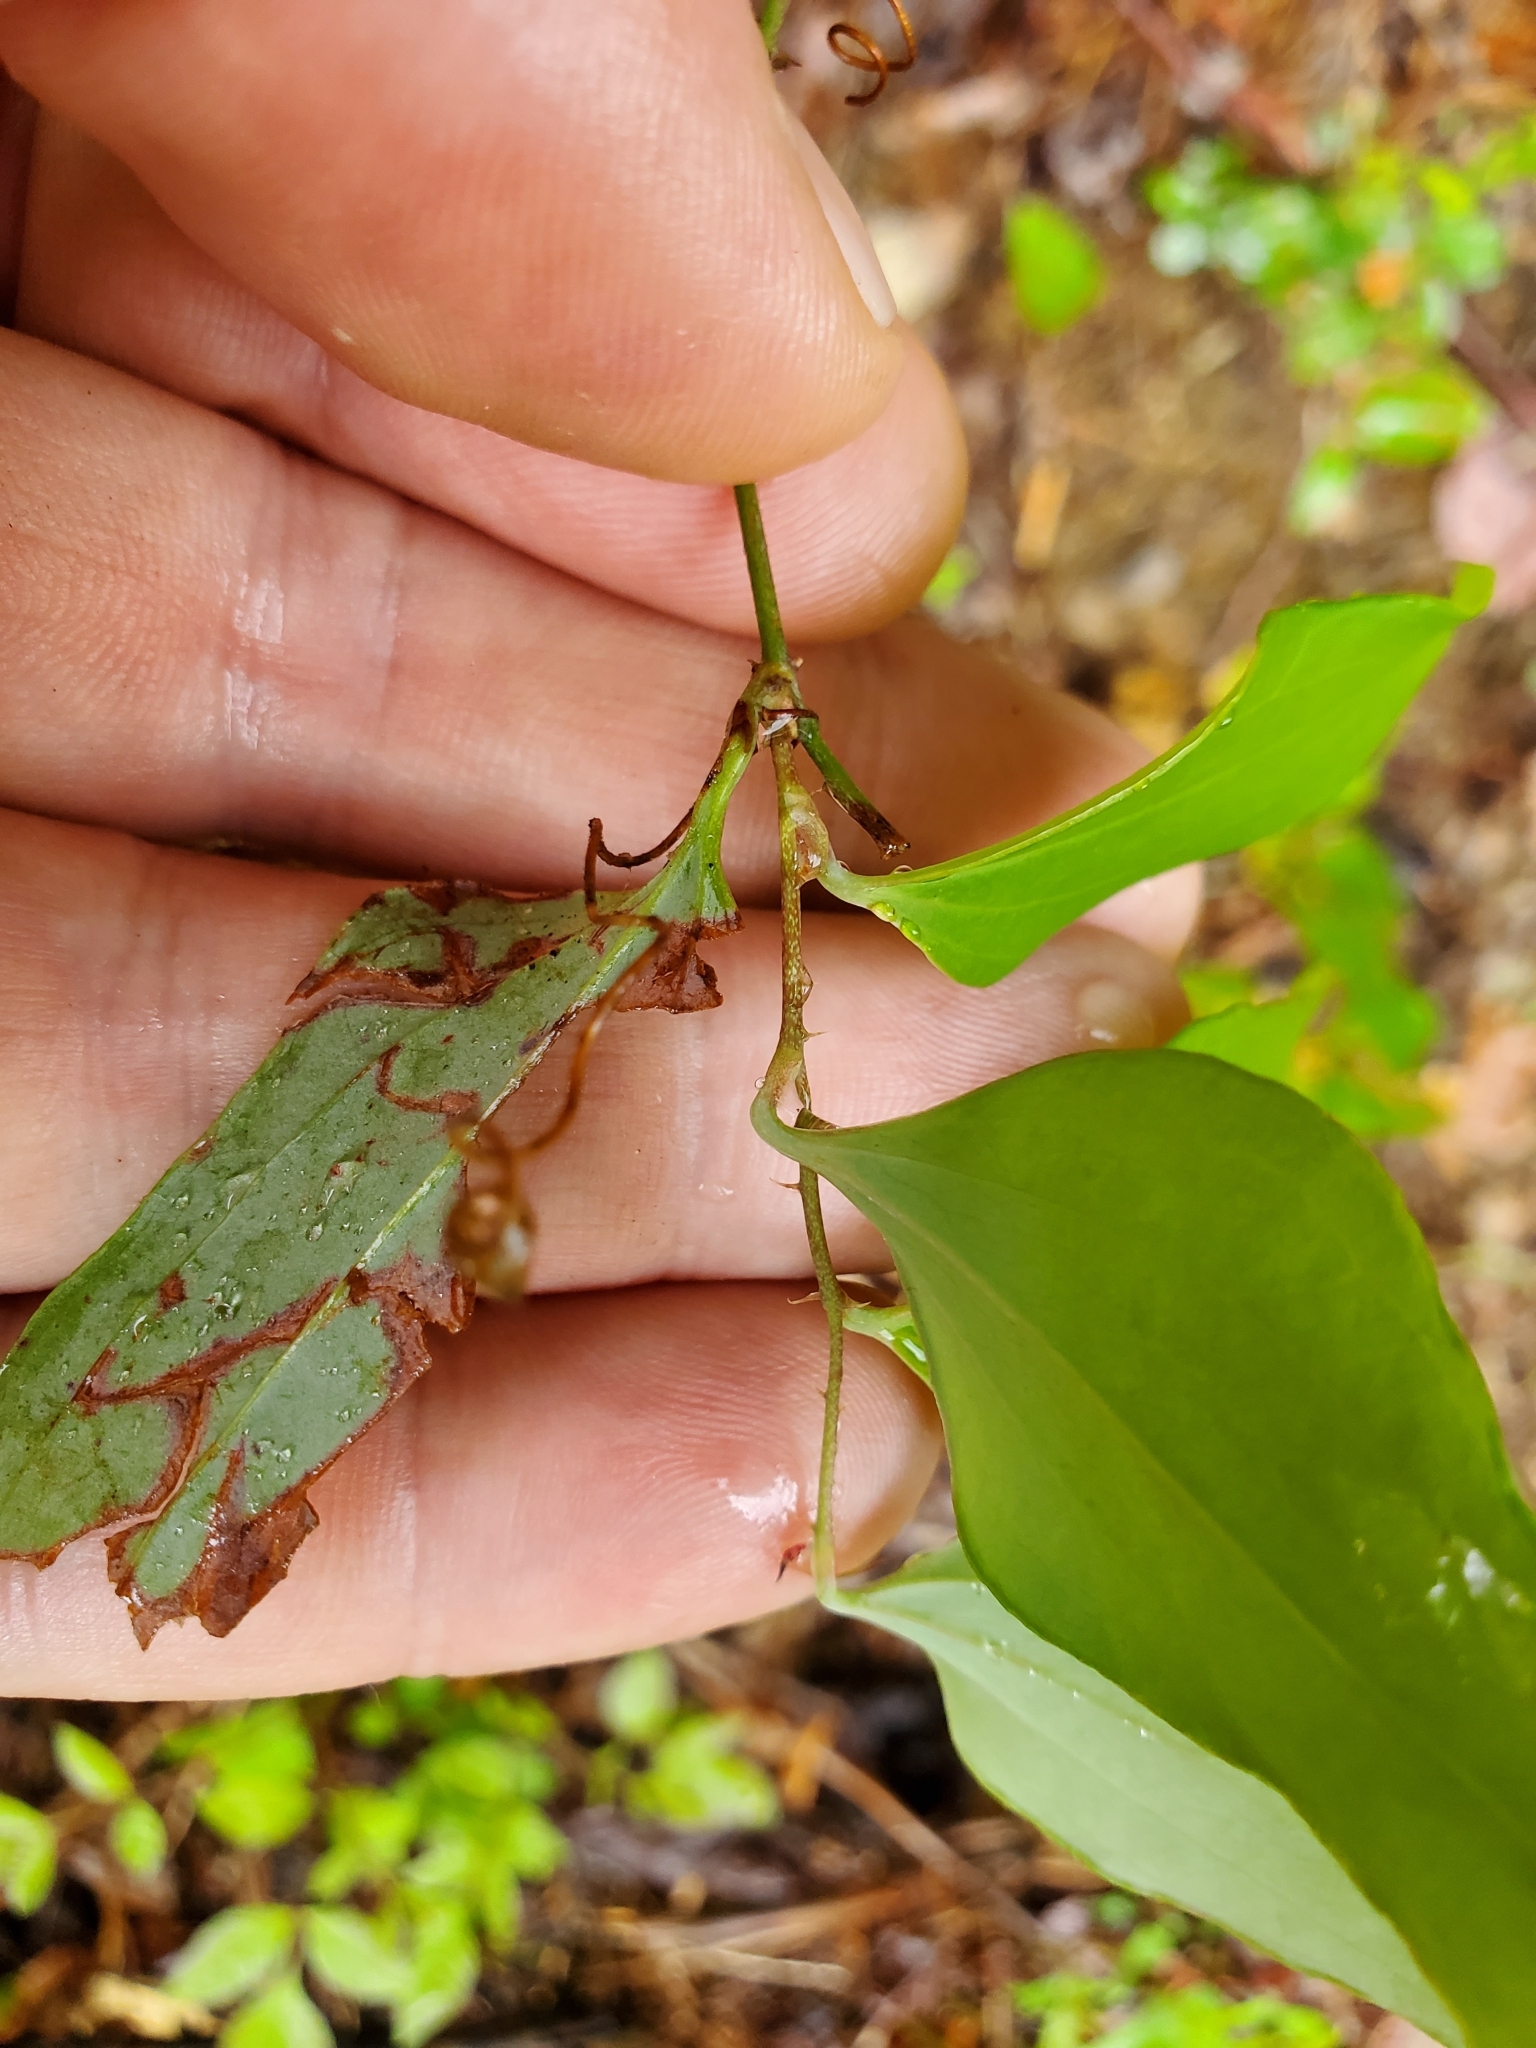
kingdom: Plantae
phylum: Tracheophyta
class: Liliopsida
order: Liliales
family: Smilacaceae
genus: Smilax
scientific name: Smilax glauca
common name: Cat greenbrier
